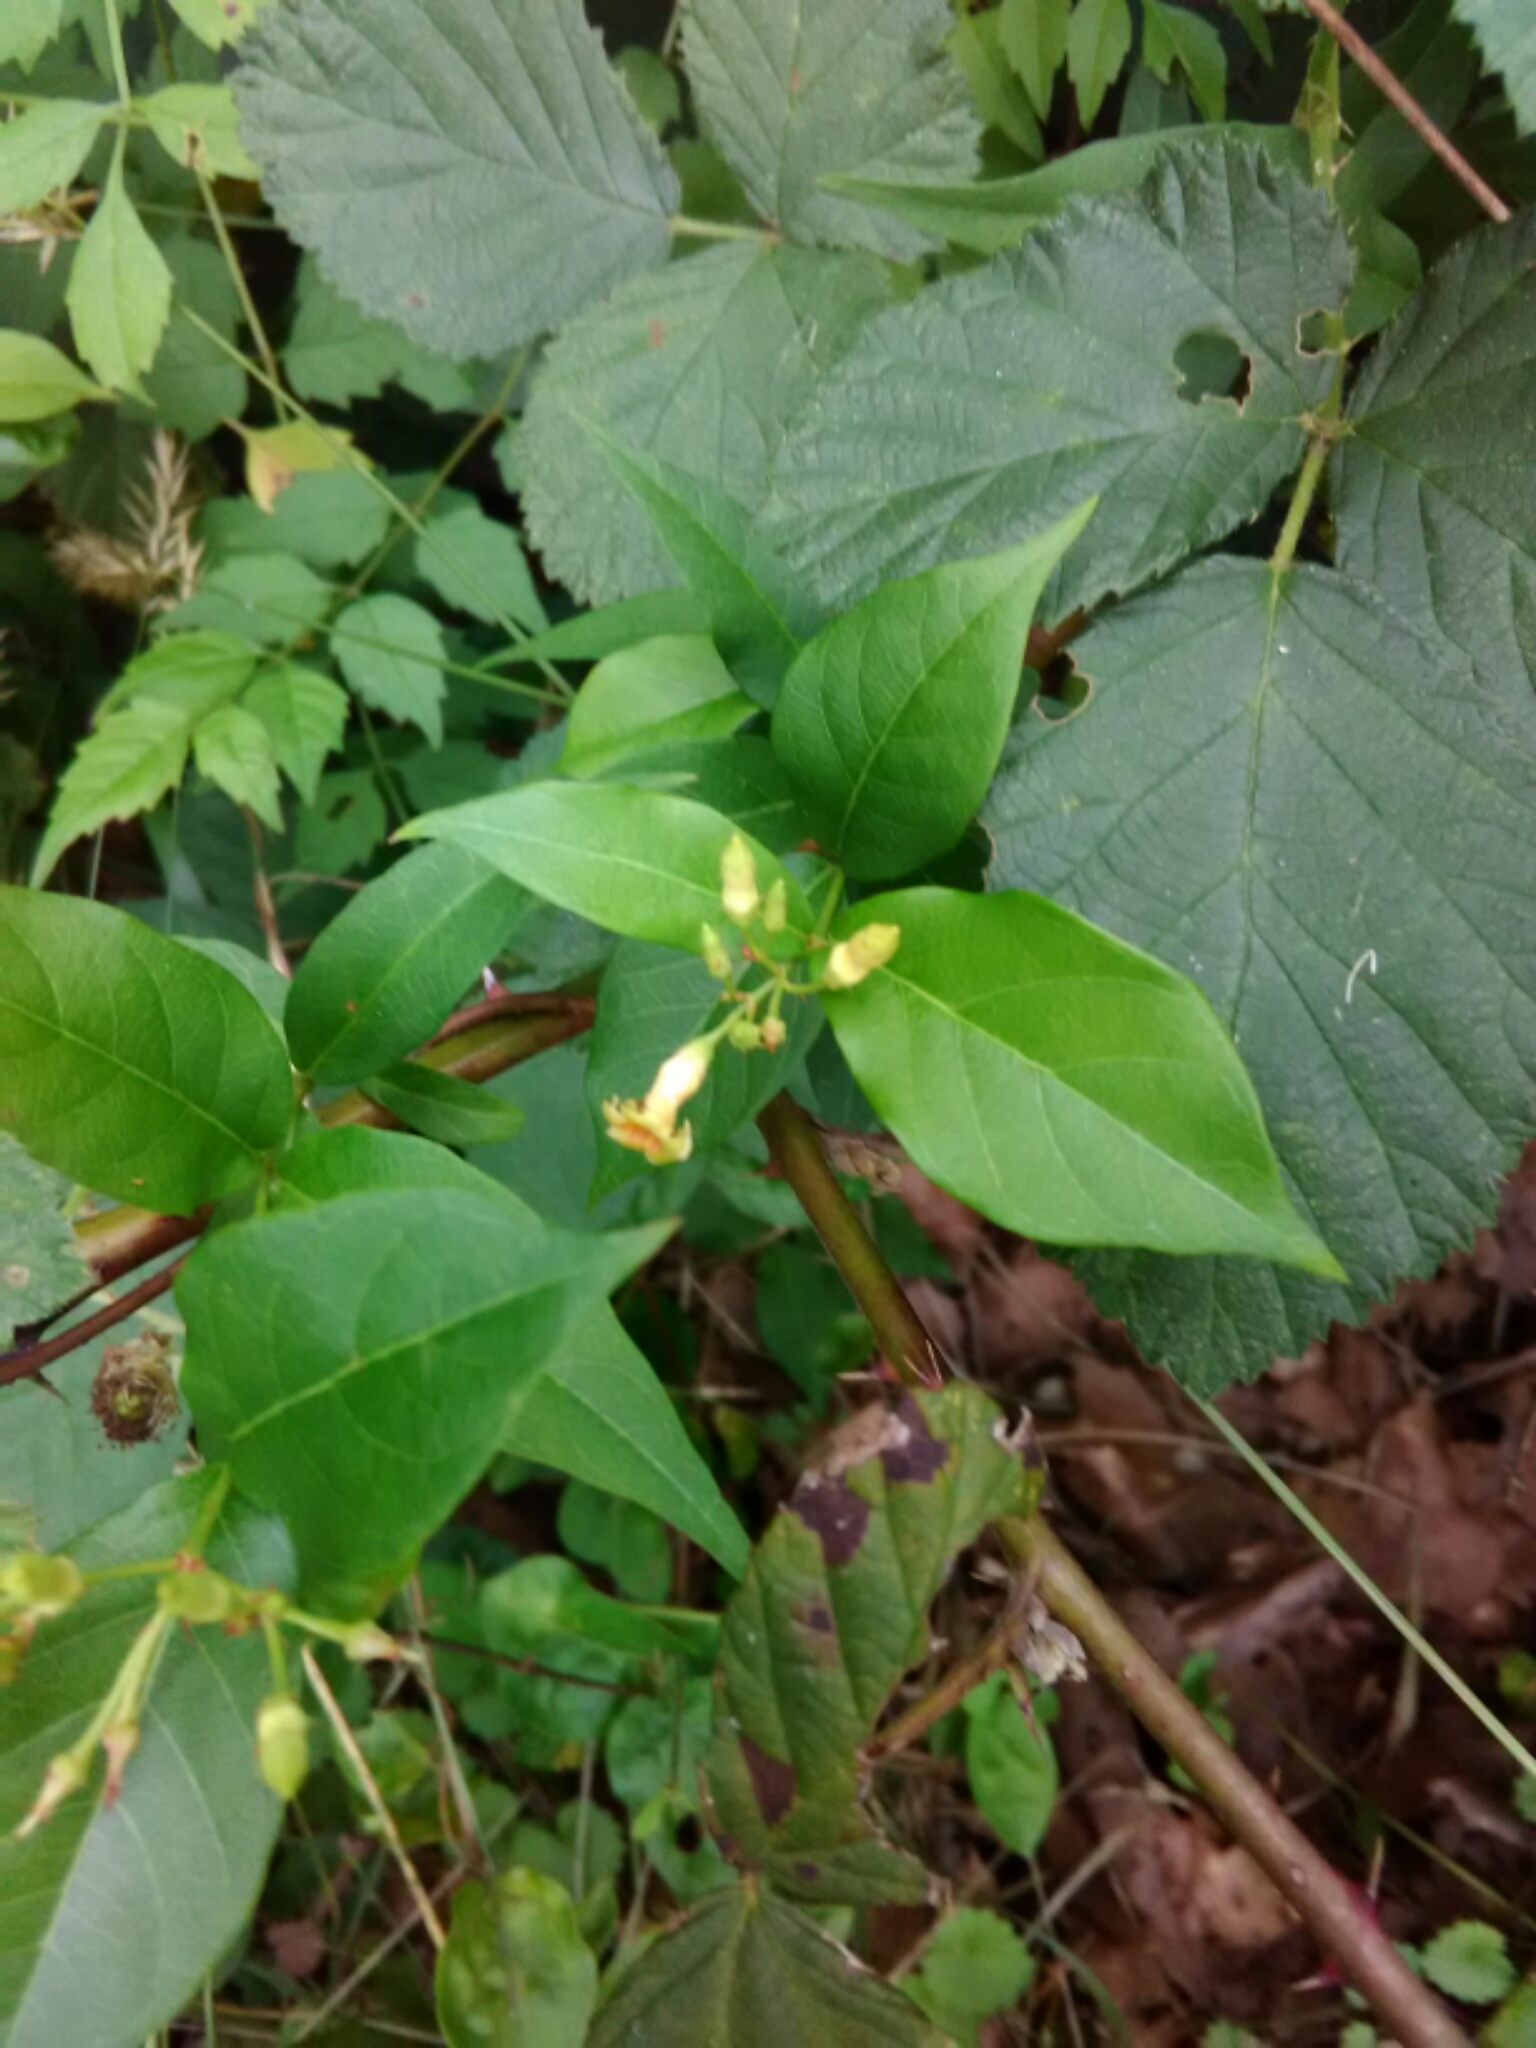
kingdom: Plantae
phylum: Tracheophyta
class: Magnoliopsida
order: Gentianales
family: Apocynaceae
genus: Thyrsanthella
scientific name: Thyrsanthella difformis
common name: Climbing dogbane
